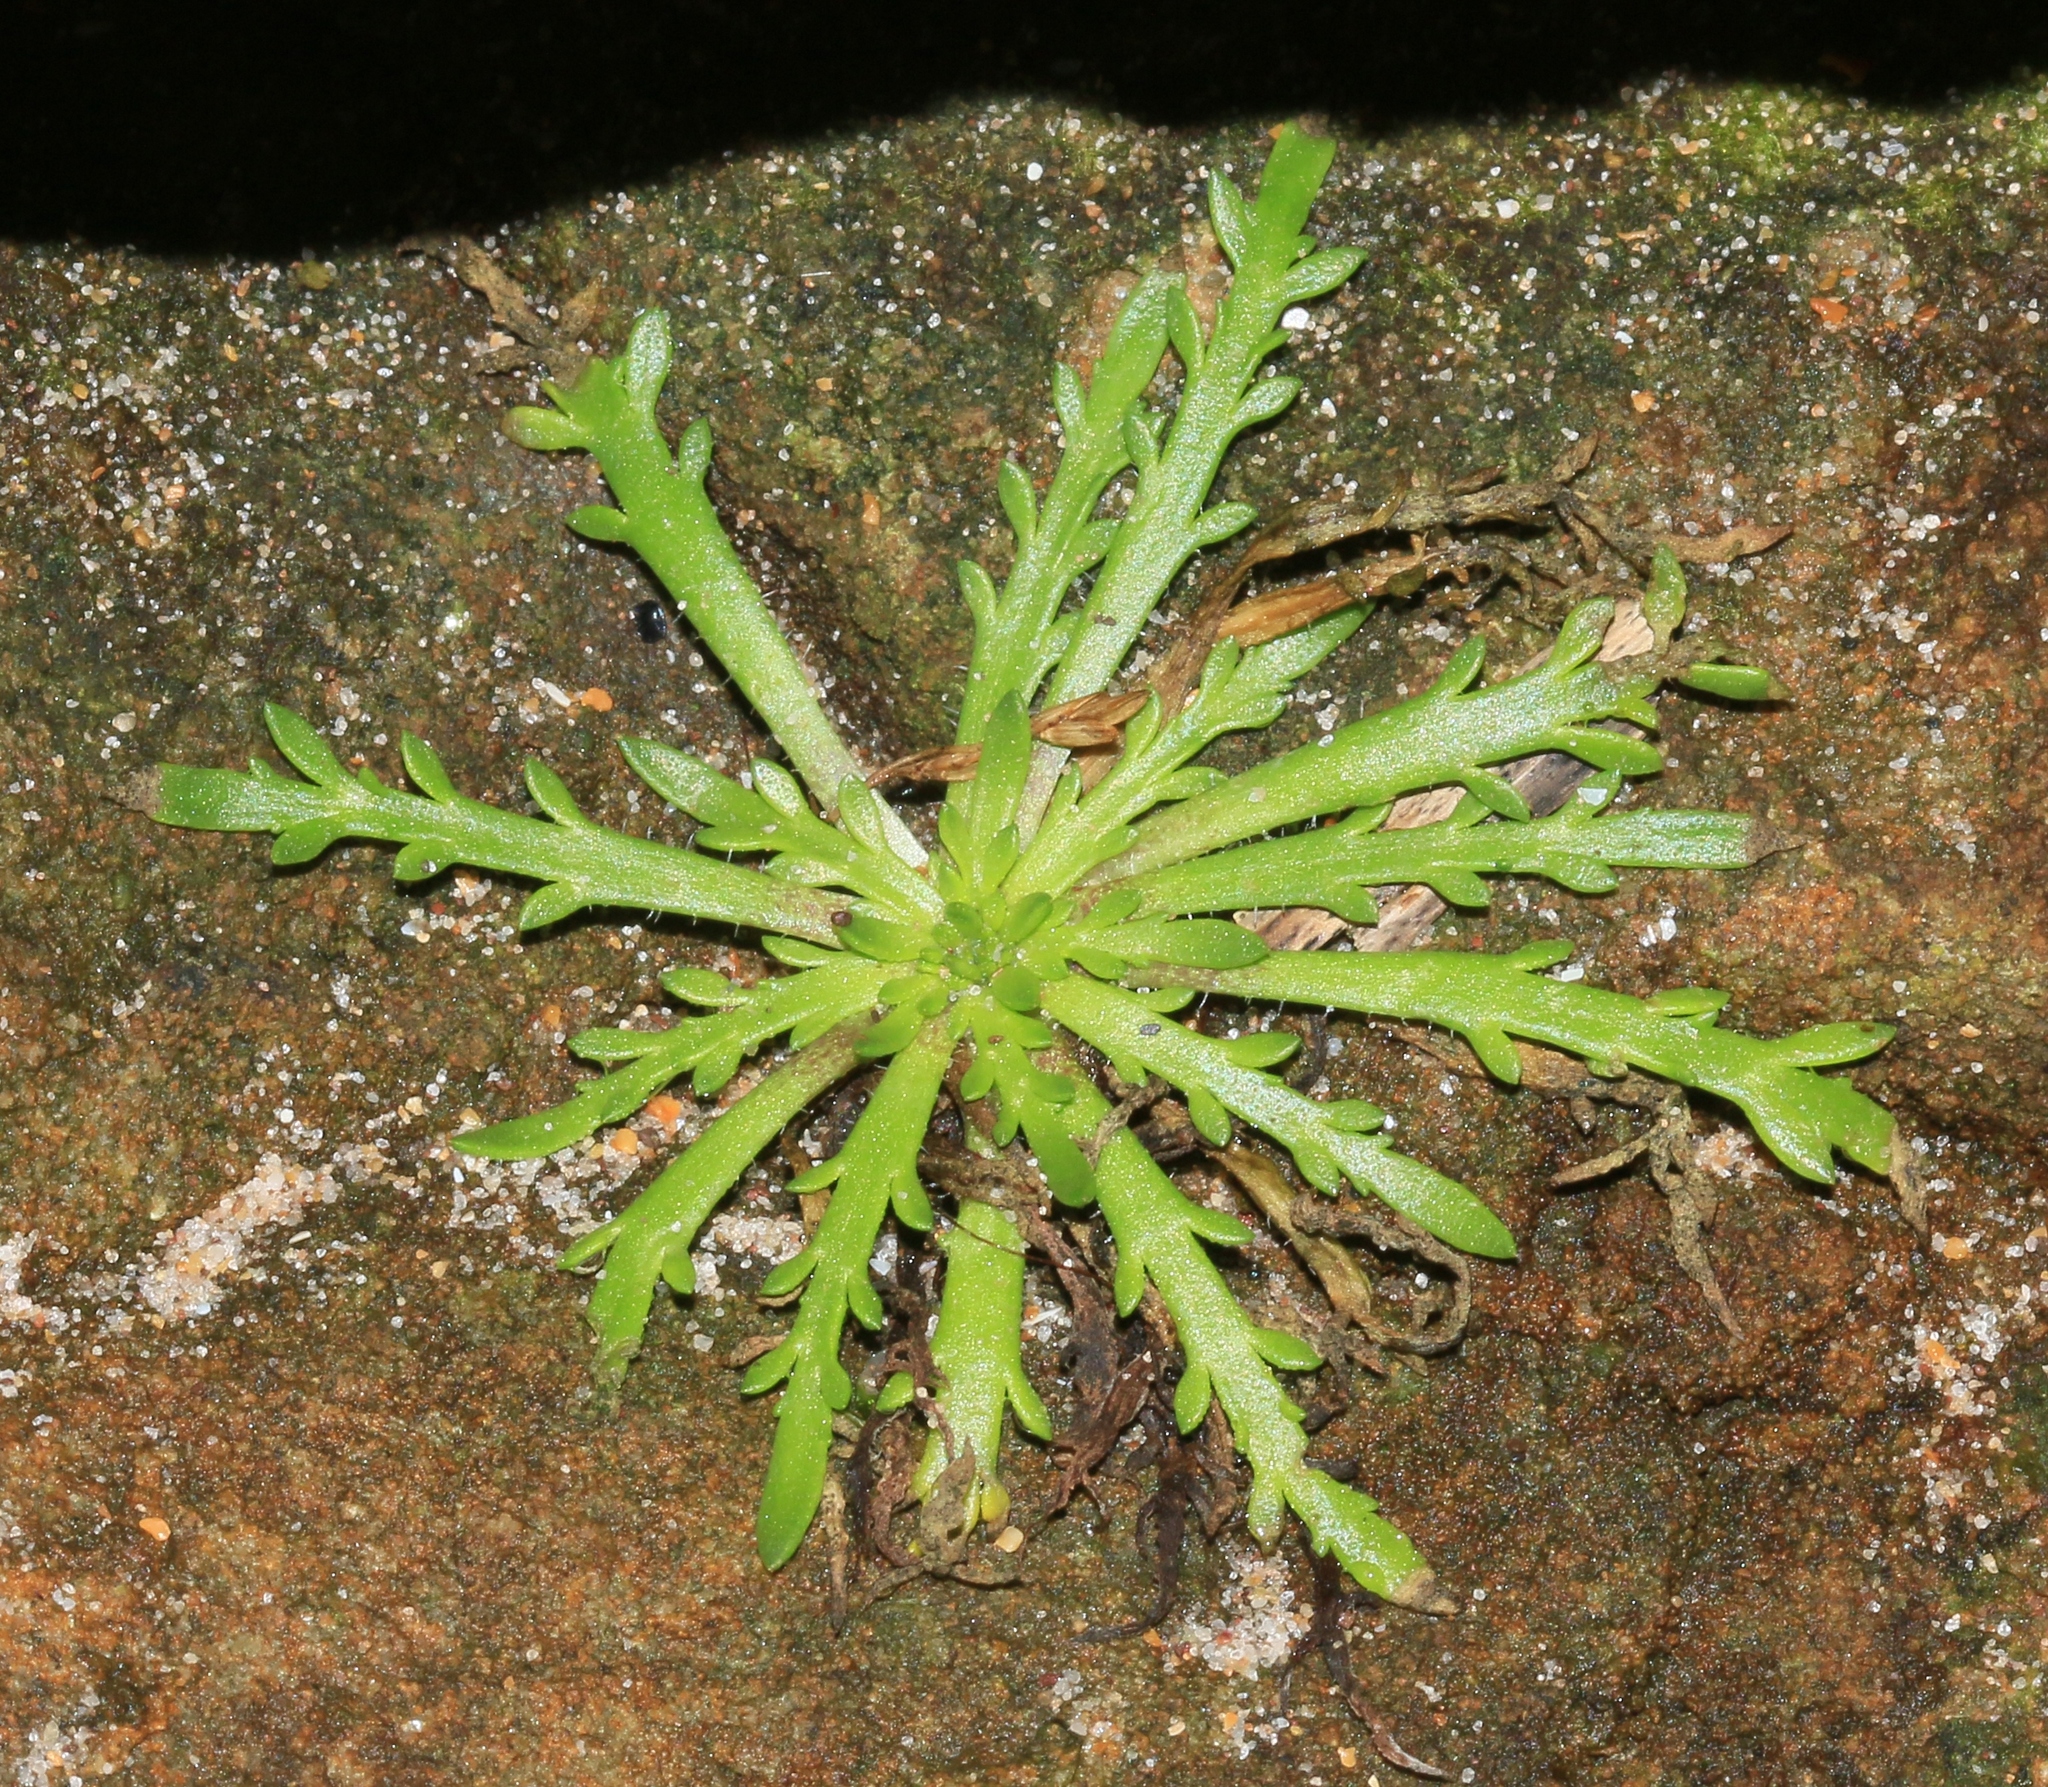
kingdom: Plantae
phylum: Tracheophyta
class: Magnoliopsida
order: Lamiales
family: Plantaginaceae
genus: Plantago
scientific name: Plantago coronopus
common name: Buck's-horn plantain
